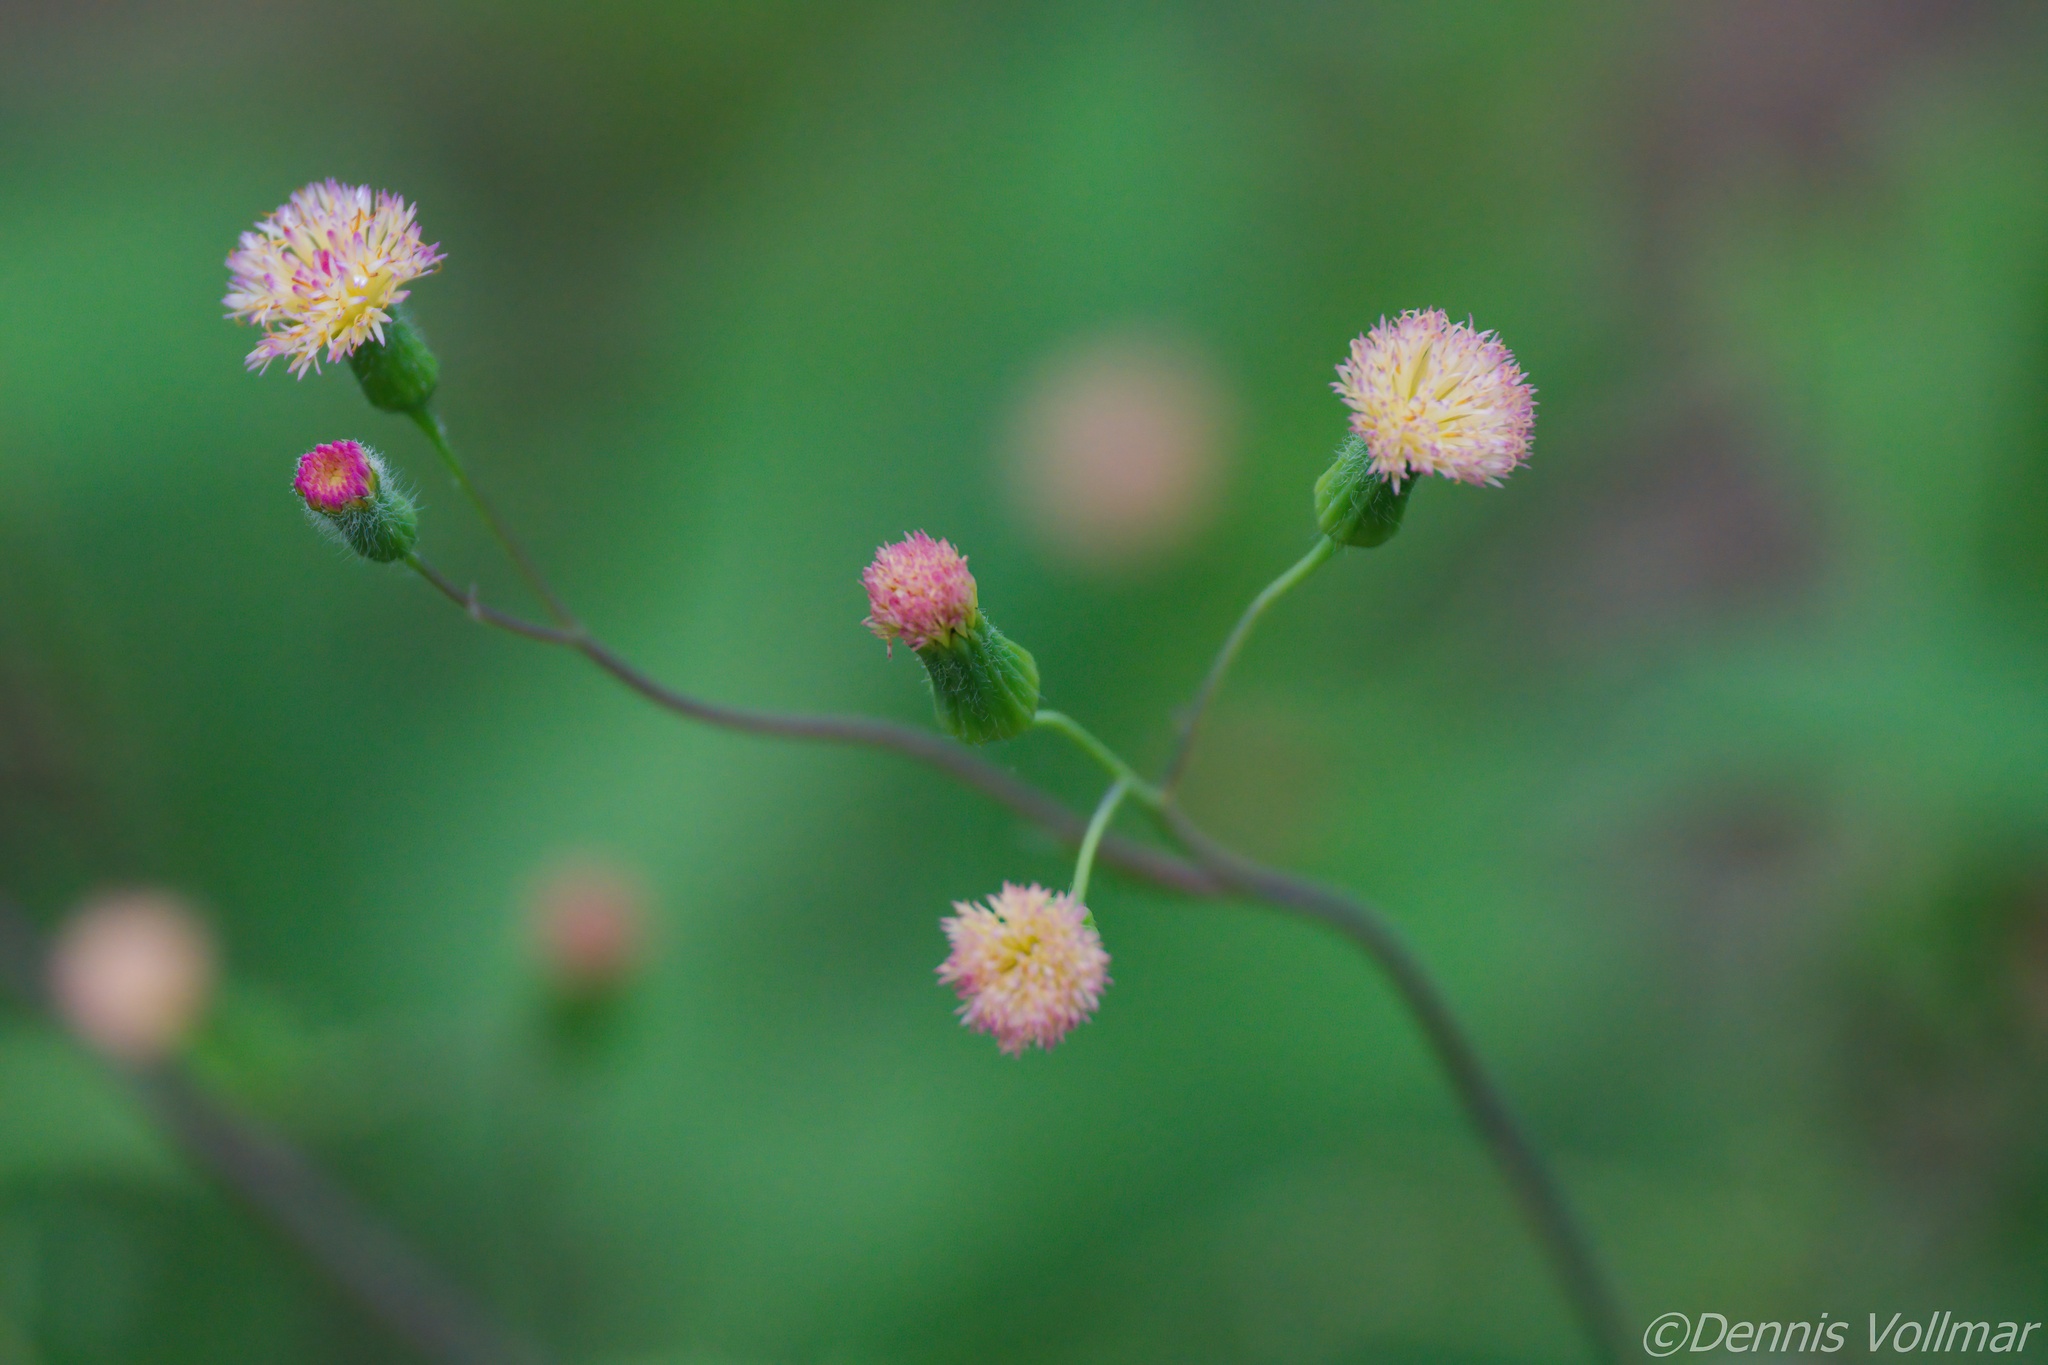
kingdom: Plantae
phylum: Tracheophyta
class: Magnoliopsida
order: Asterales
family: Asteraceae
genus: Emilia
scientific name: Emilia praetermissa
